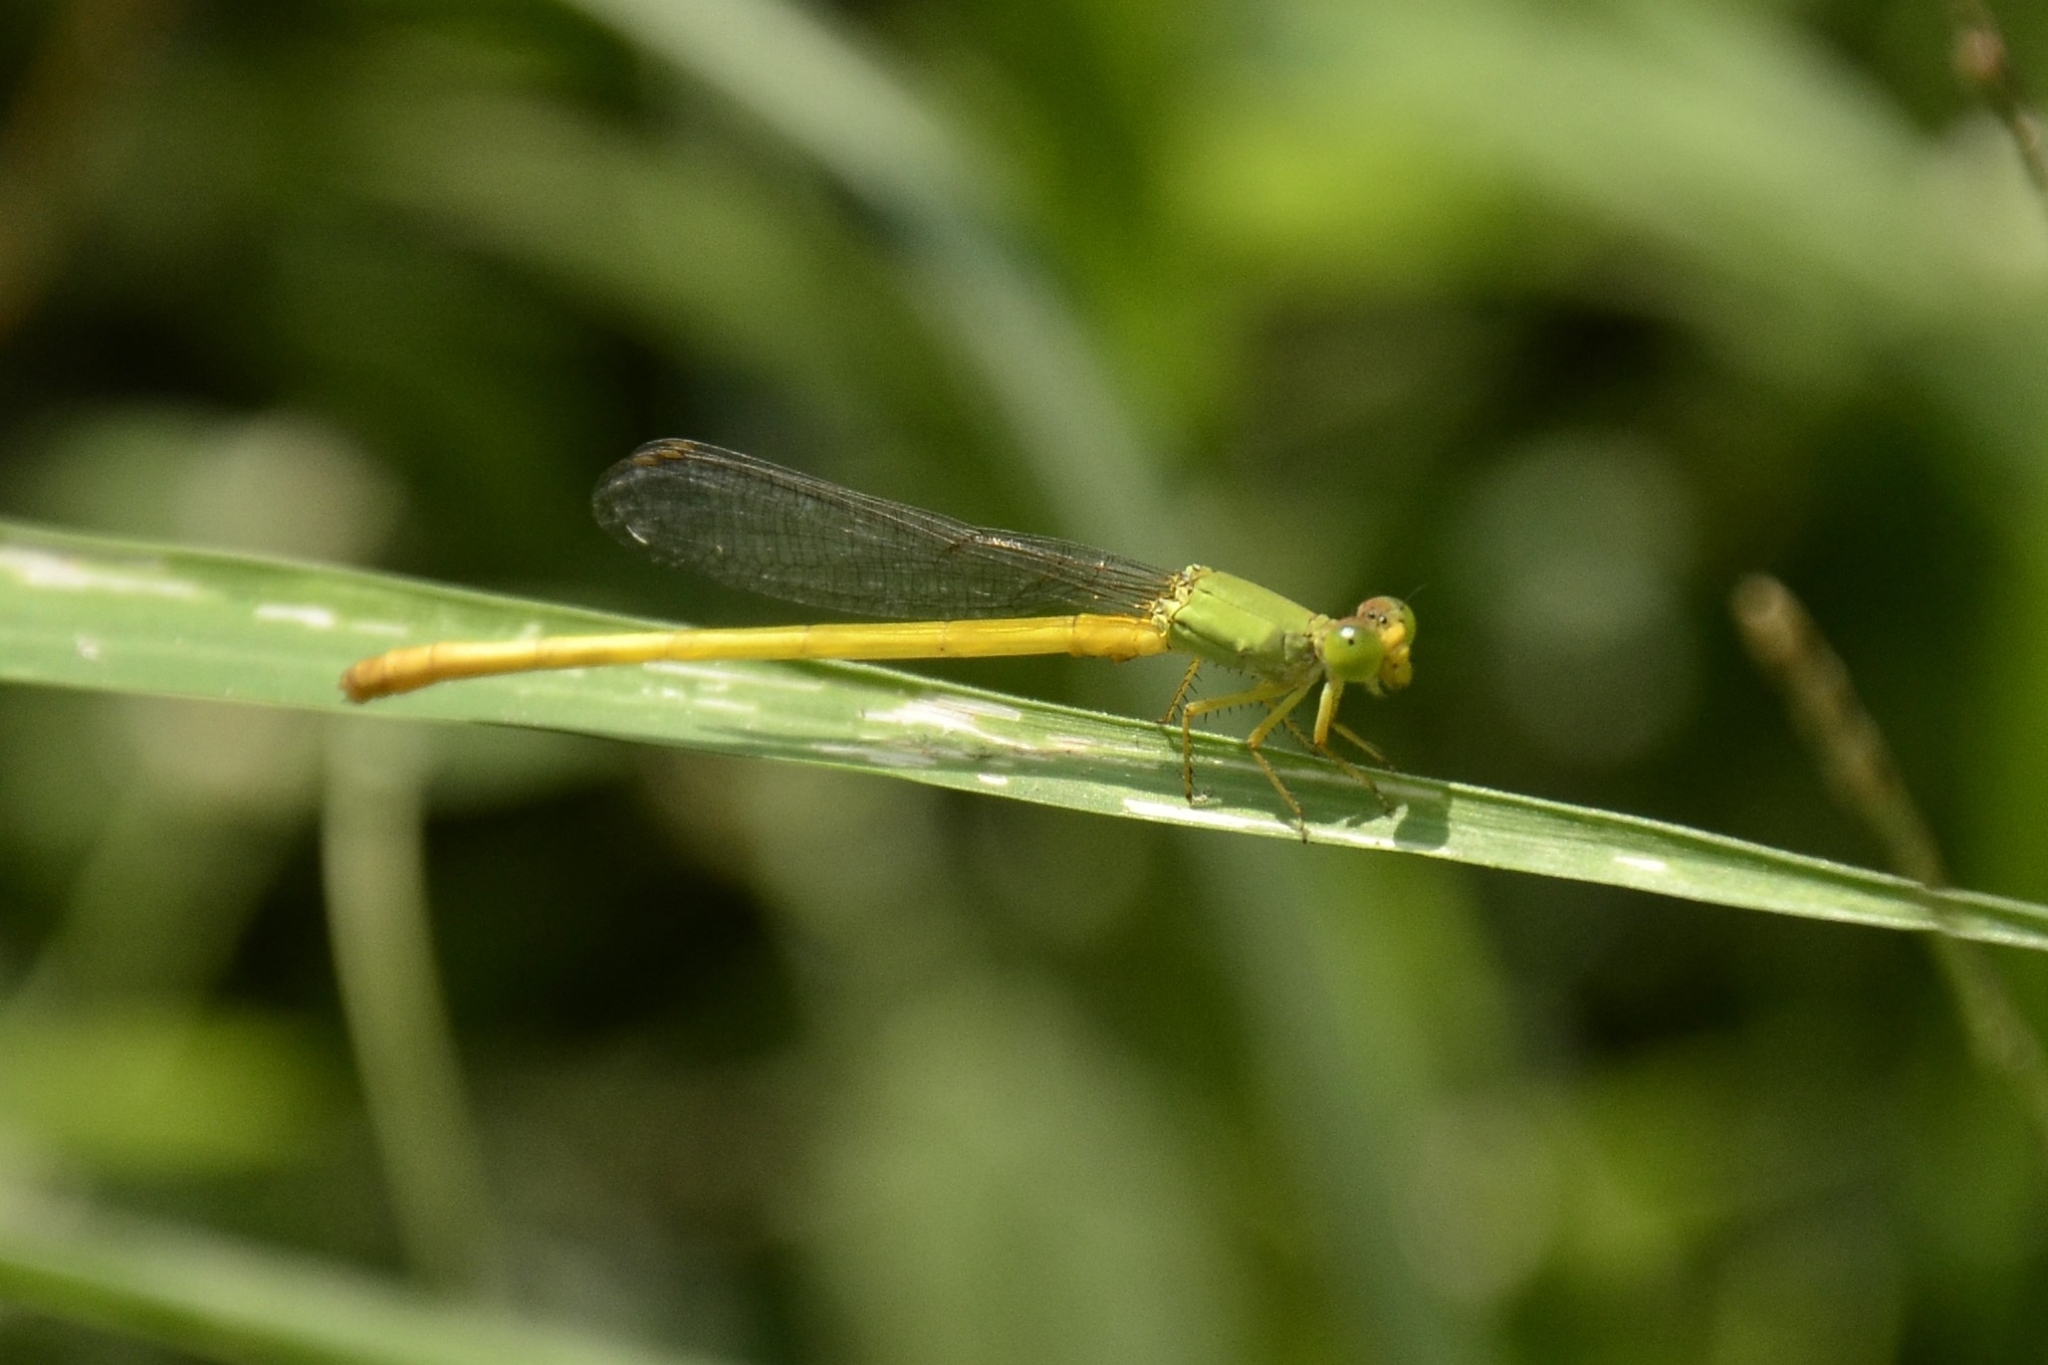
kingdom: Animalia
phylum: Arthropoda
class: Insecta
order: Odonata
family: Coenagrionidae
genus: Ceriagrion
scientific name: Ceriagrion coromandelianum
